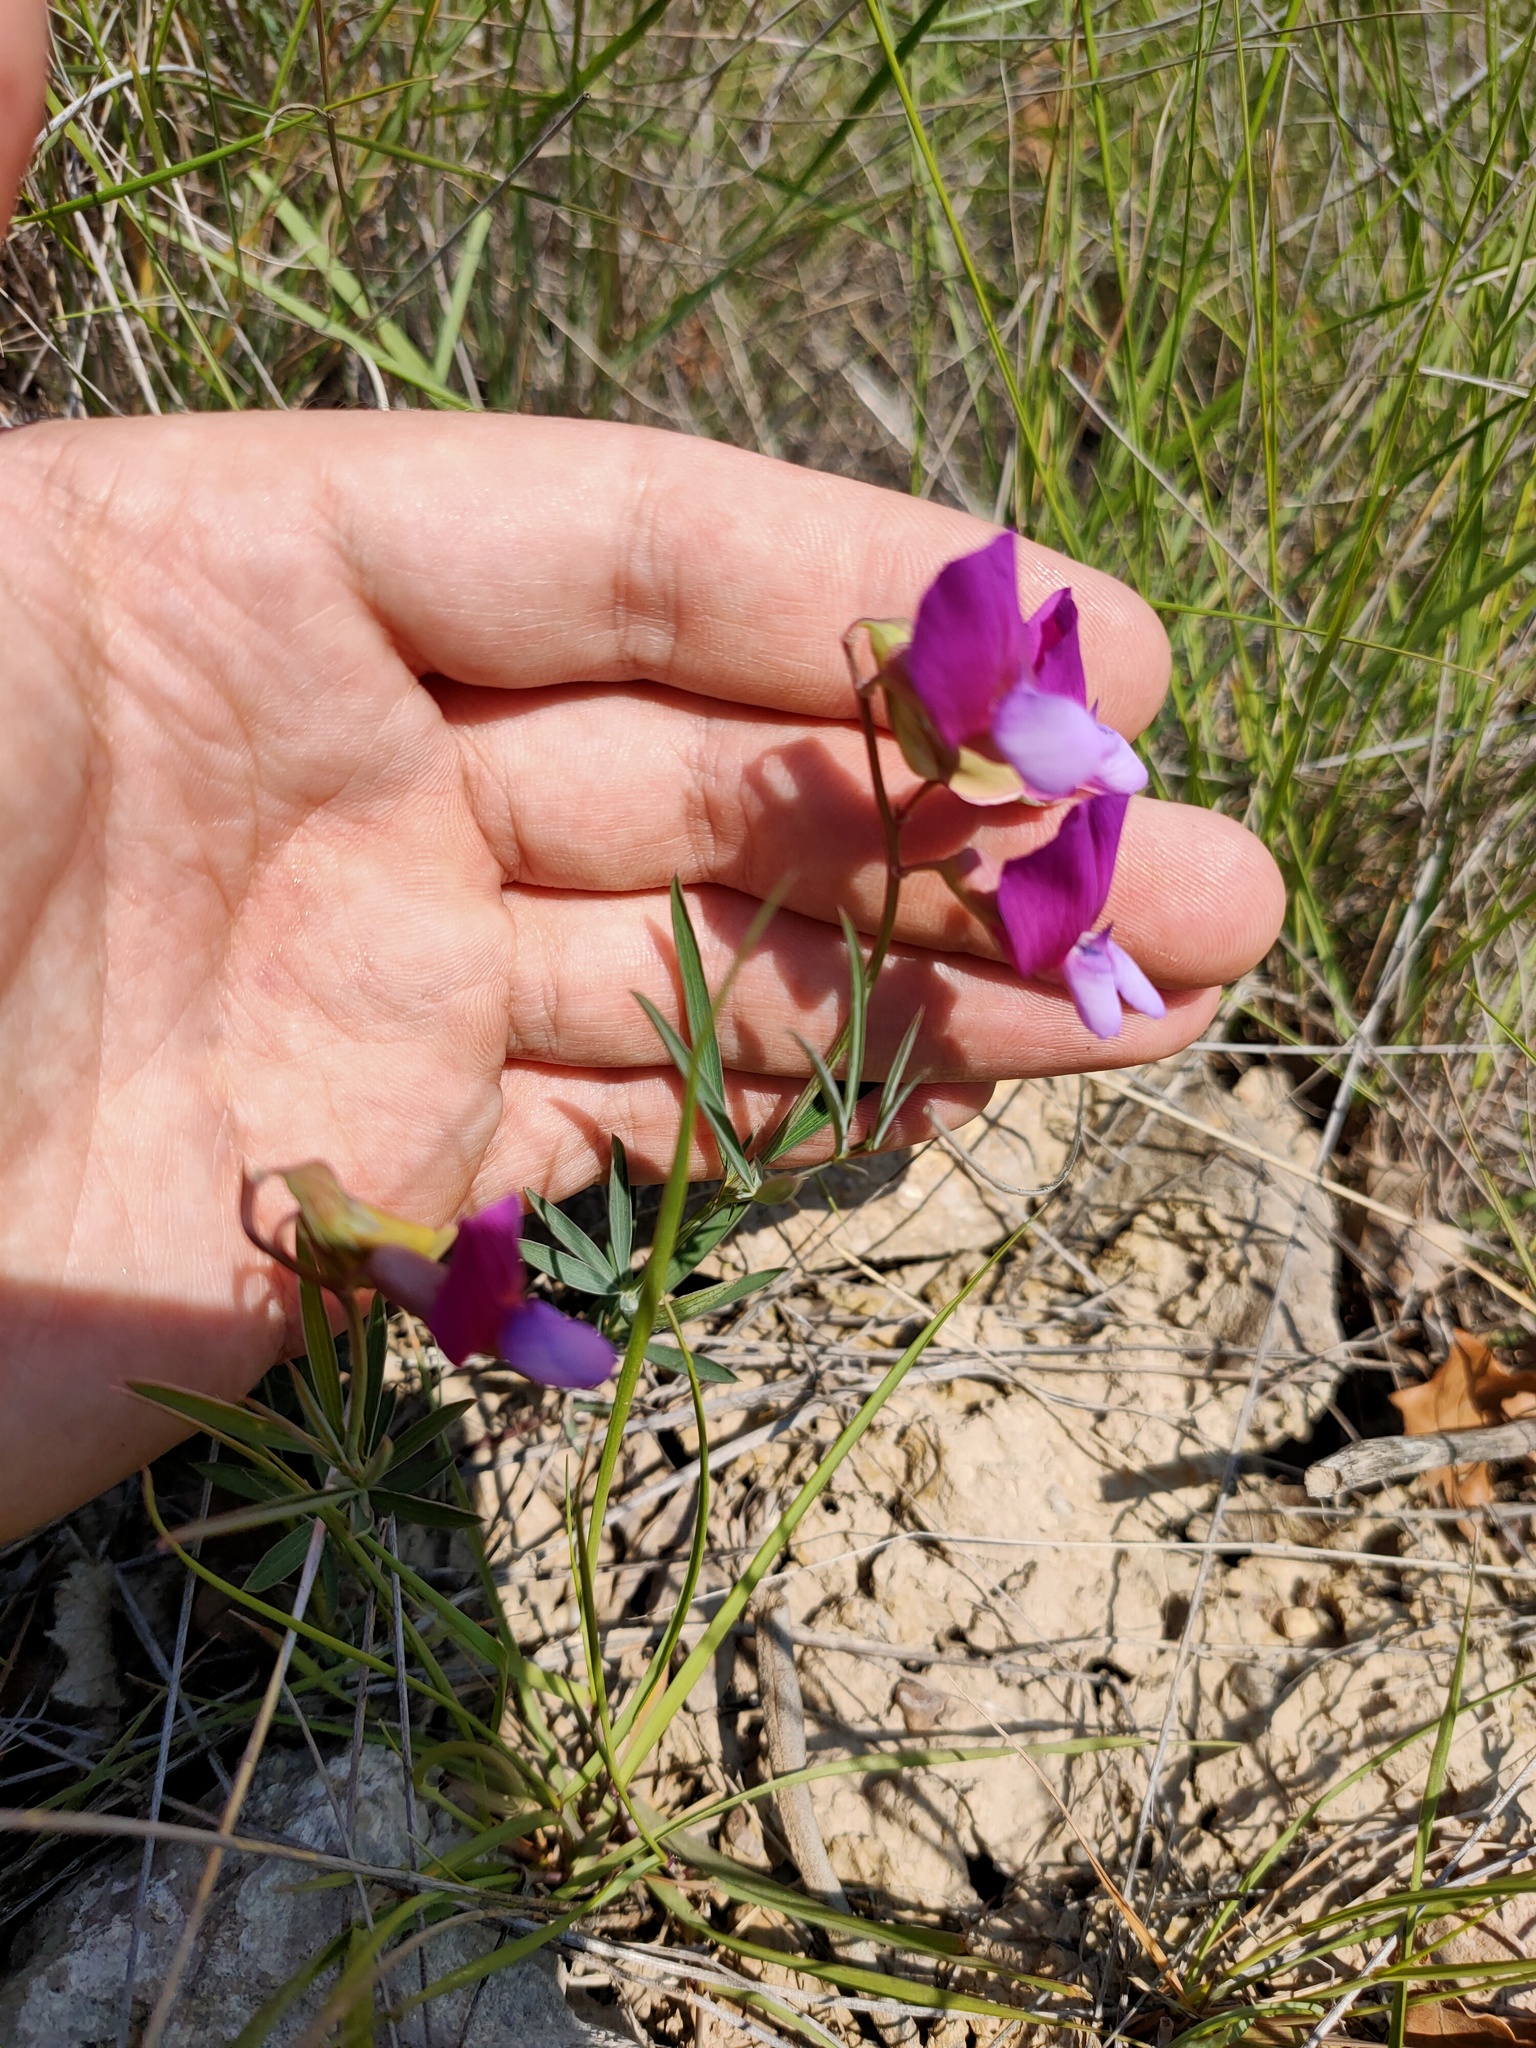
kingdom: Plantae
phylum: Tracheophyta
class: Magnoliopsida
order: Fabales
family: Fabaceae
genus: Lathyrus
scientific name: Lathyrus digitatus
